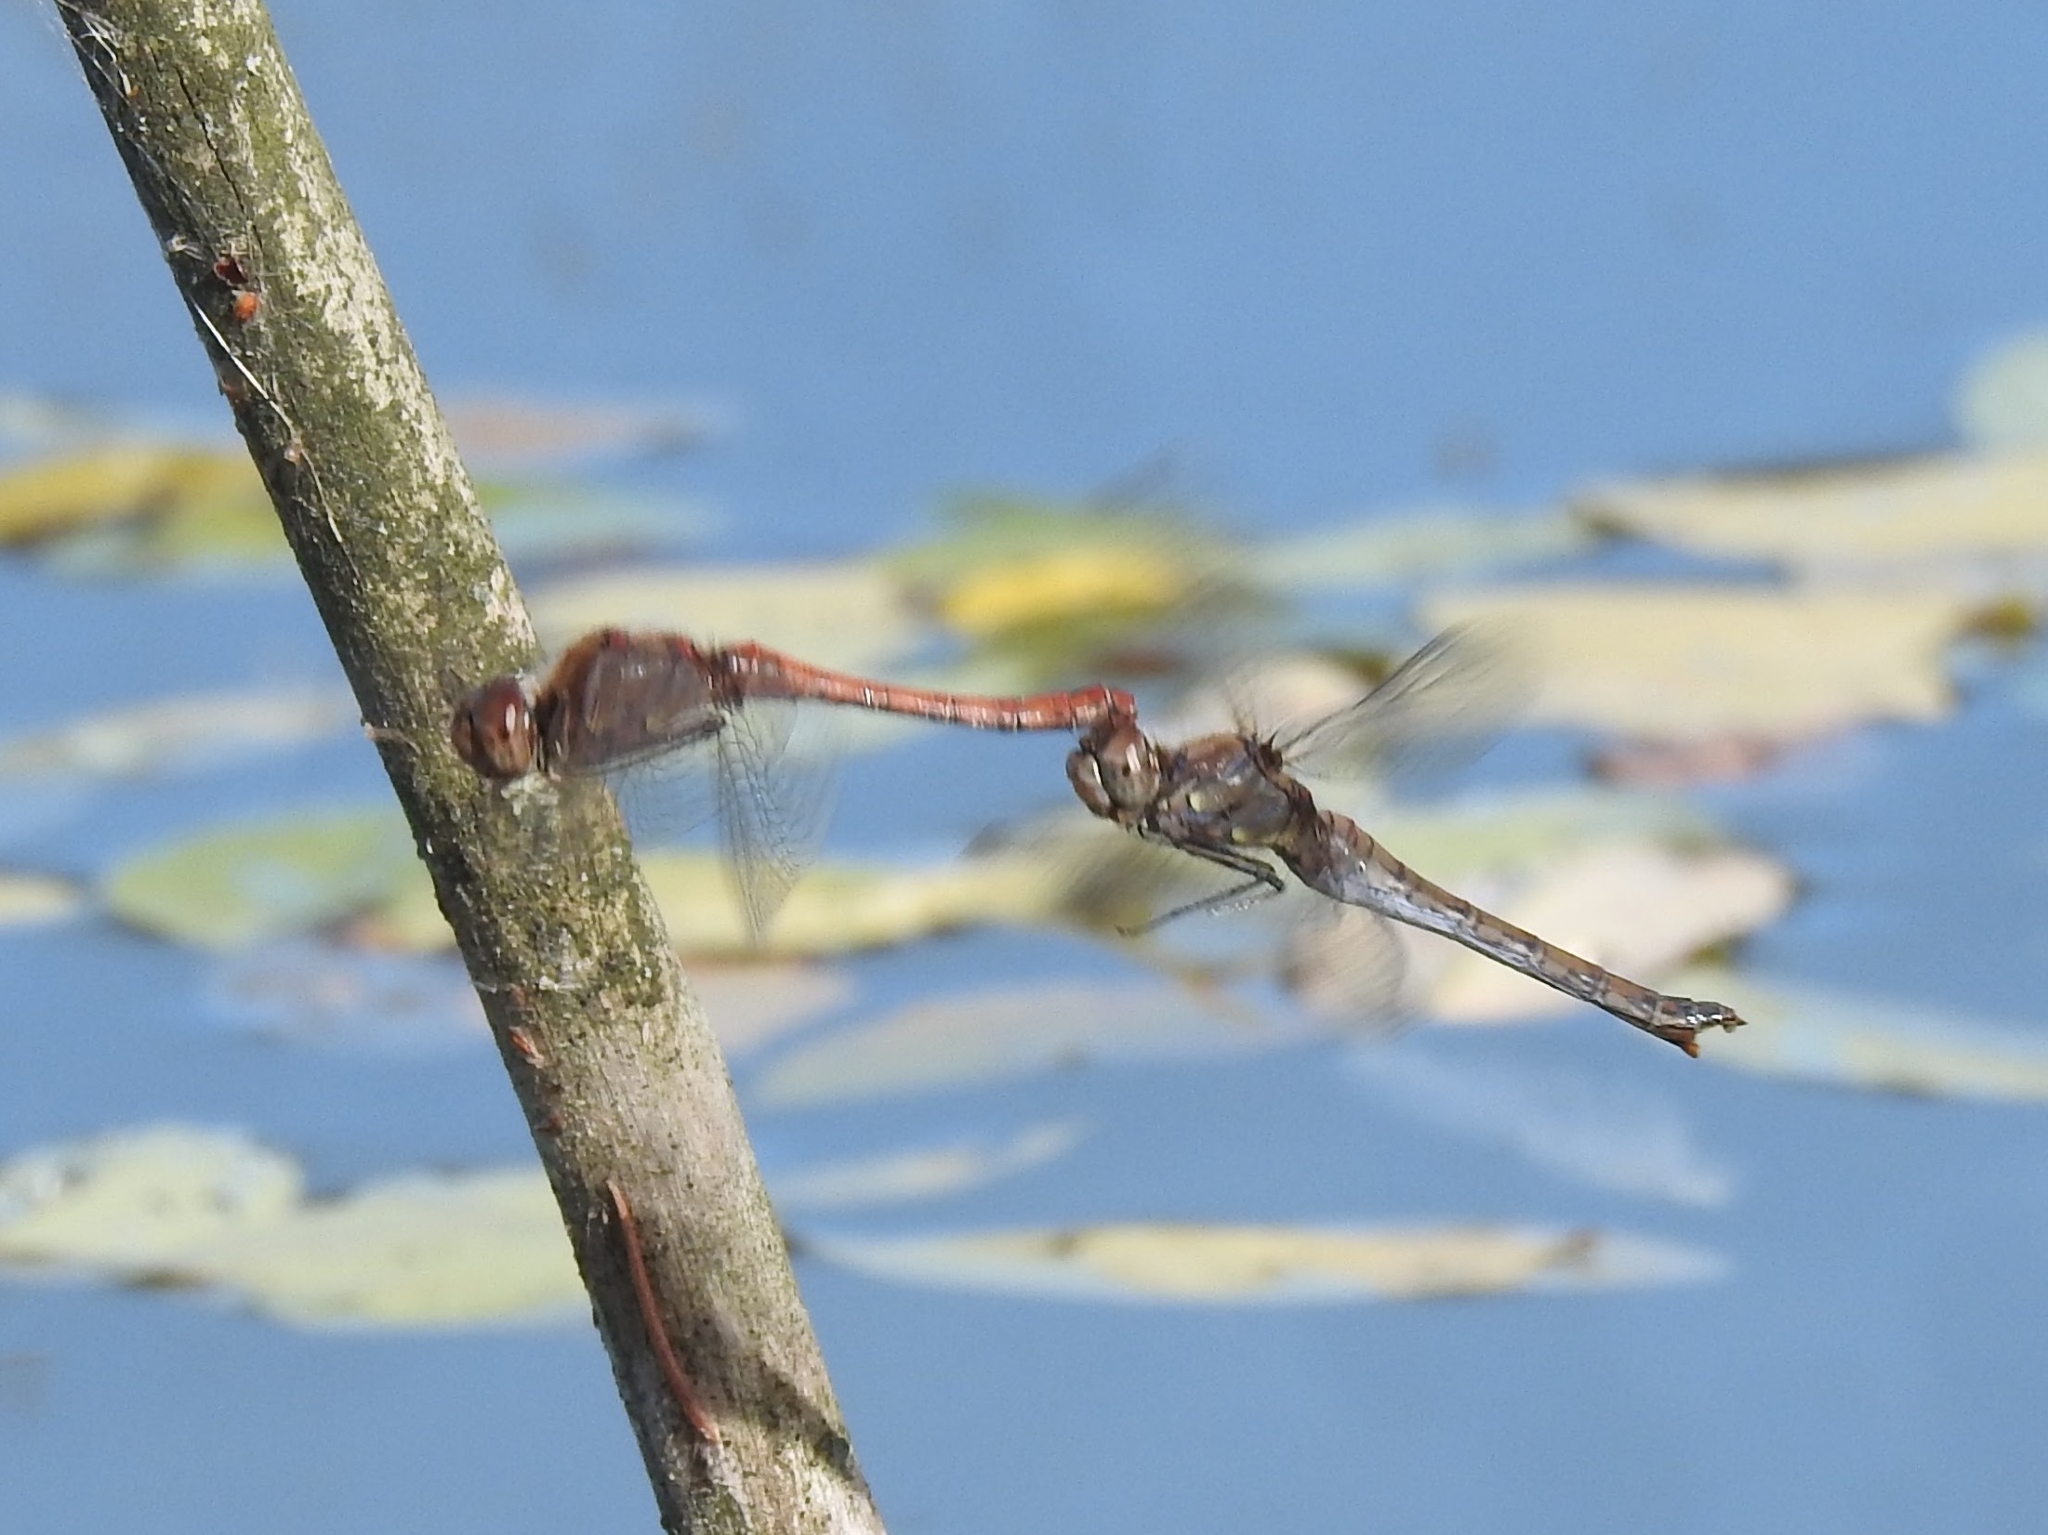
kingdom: Animalia
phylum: Arthropoda
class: Insecta
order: Odonata
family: Libellulidae
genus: Sympetrum
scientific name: Sympetrum striolatum
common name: Common darter
